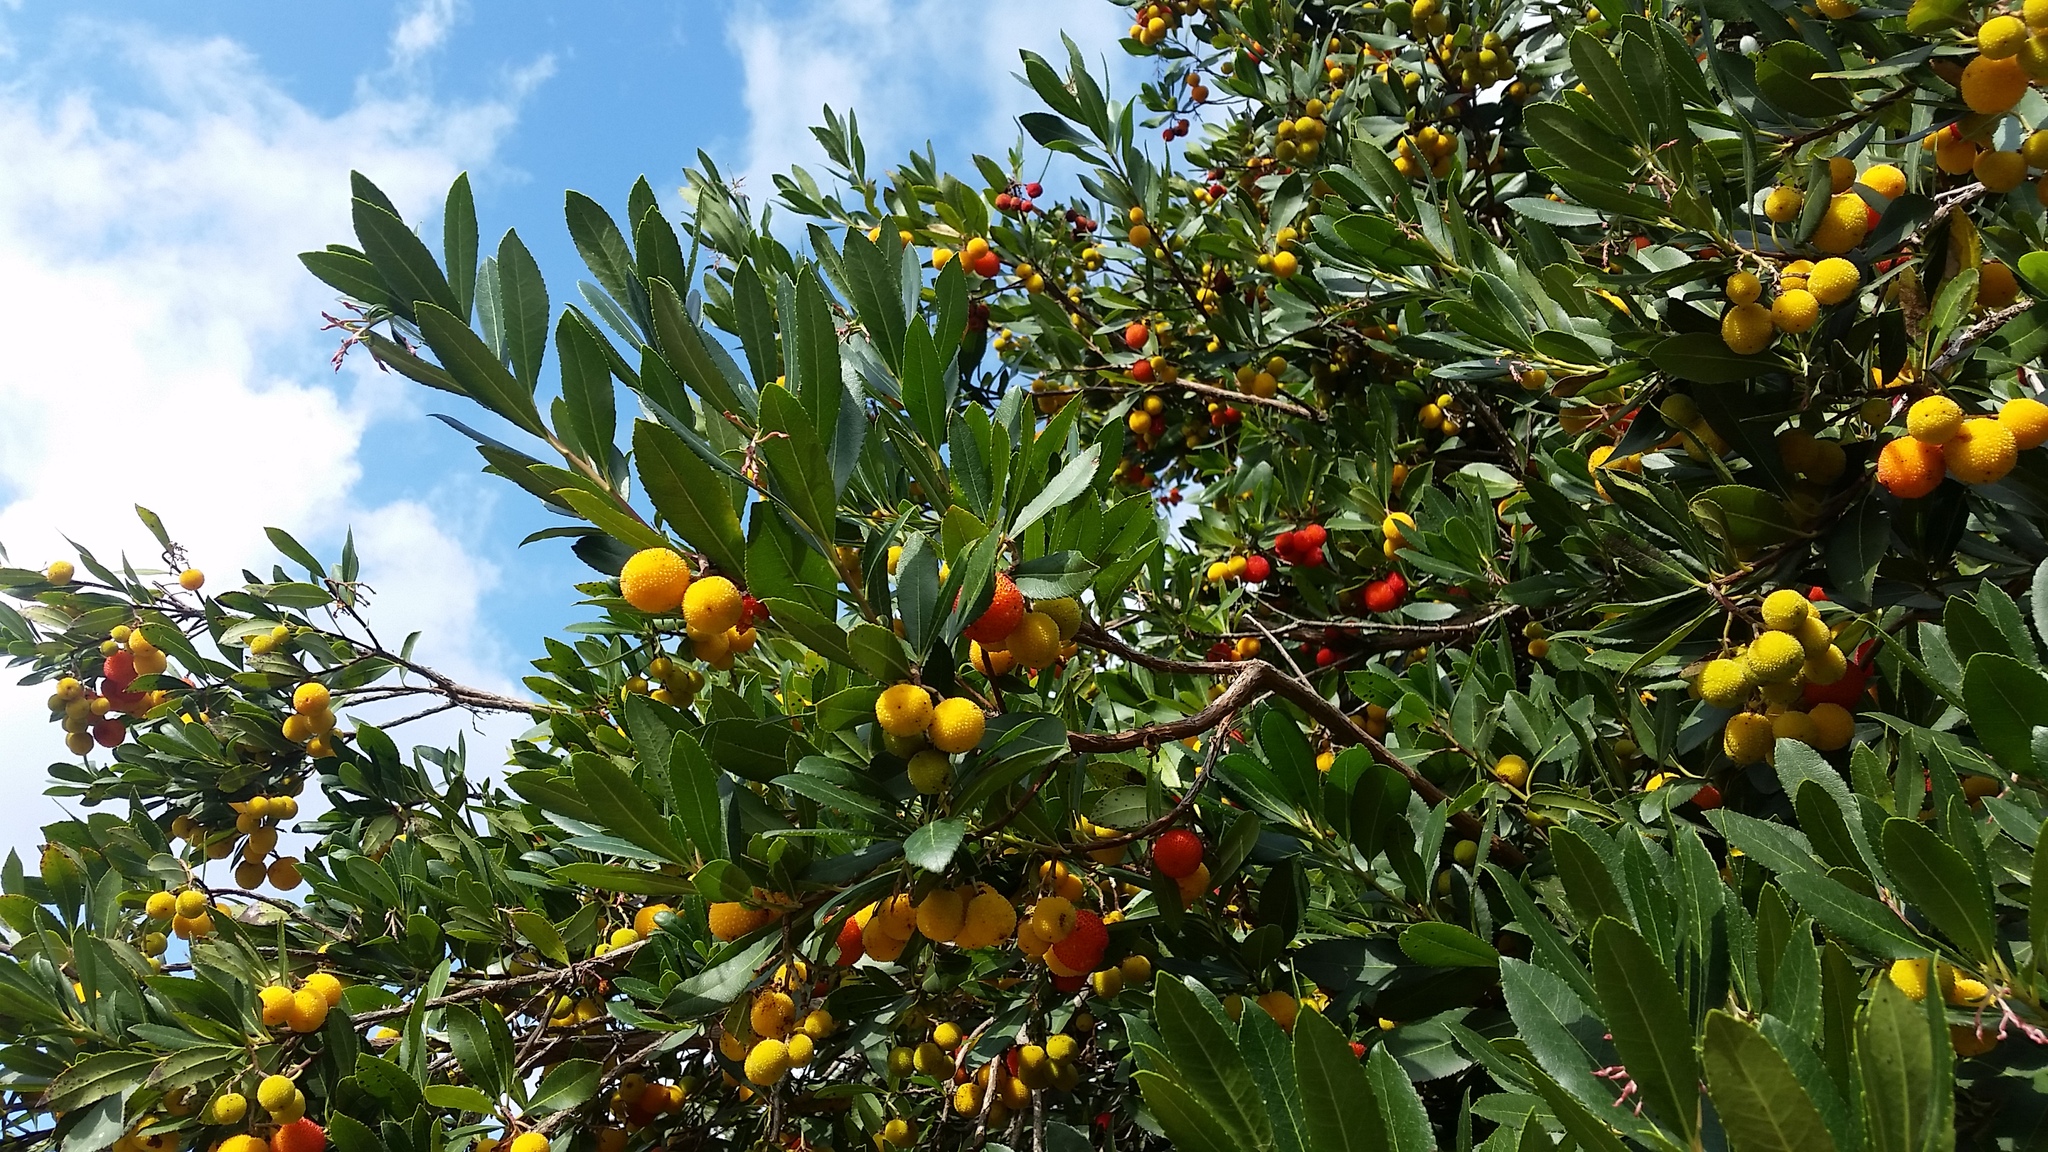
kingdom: Plantae
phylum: Tracheophyta
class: Magnoliopsida
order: Ericales
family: Ericaceae
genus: Arbutus
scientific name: Arbutus unedo
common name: Strawberry-tree
